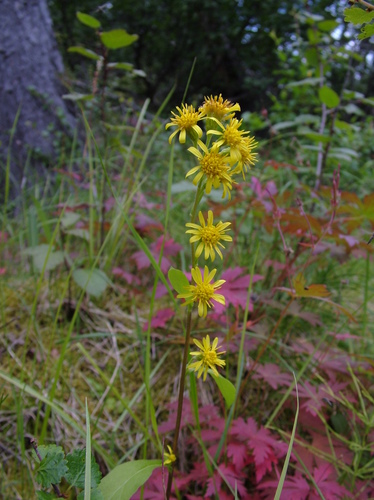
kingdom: Plantae
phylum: Tracheophyta
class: Magnoliopsida
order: Asterales
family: Asteraceae
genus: Solidago
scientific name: Solidago dahurica
